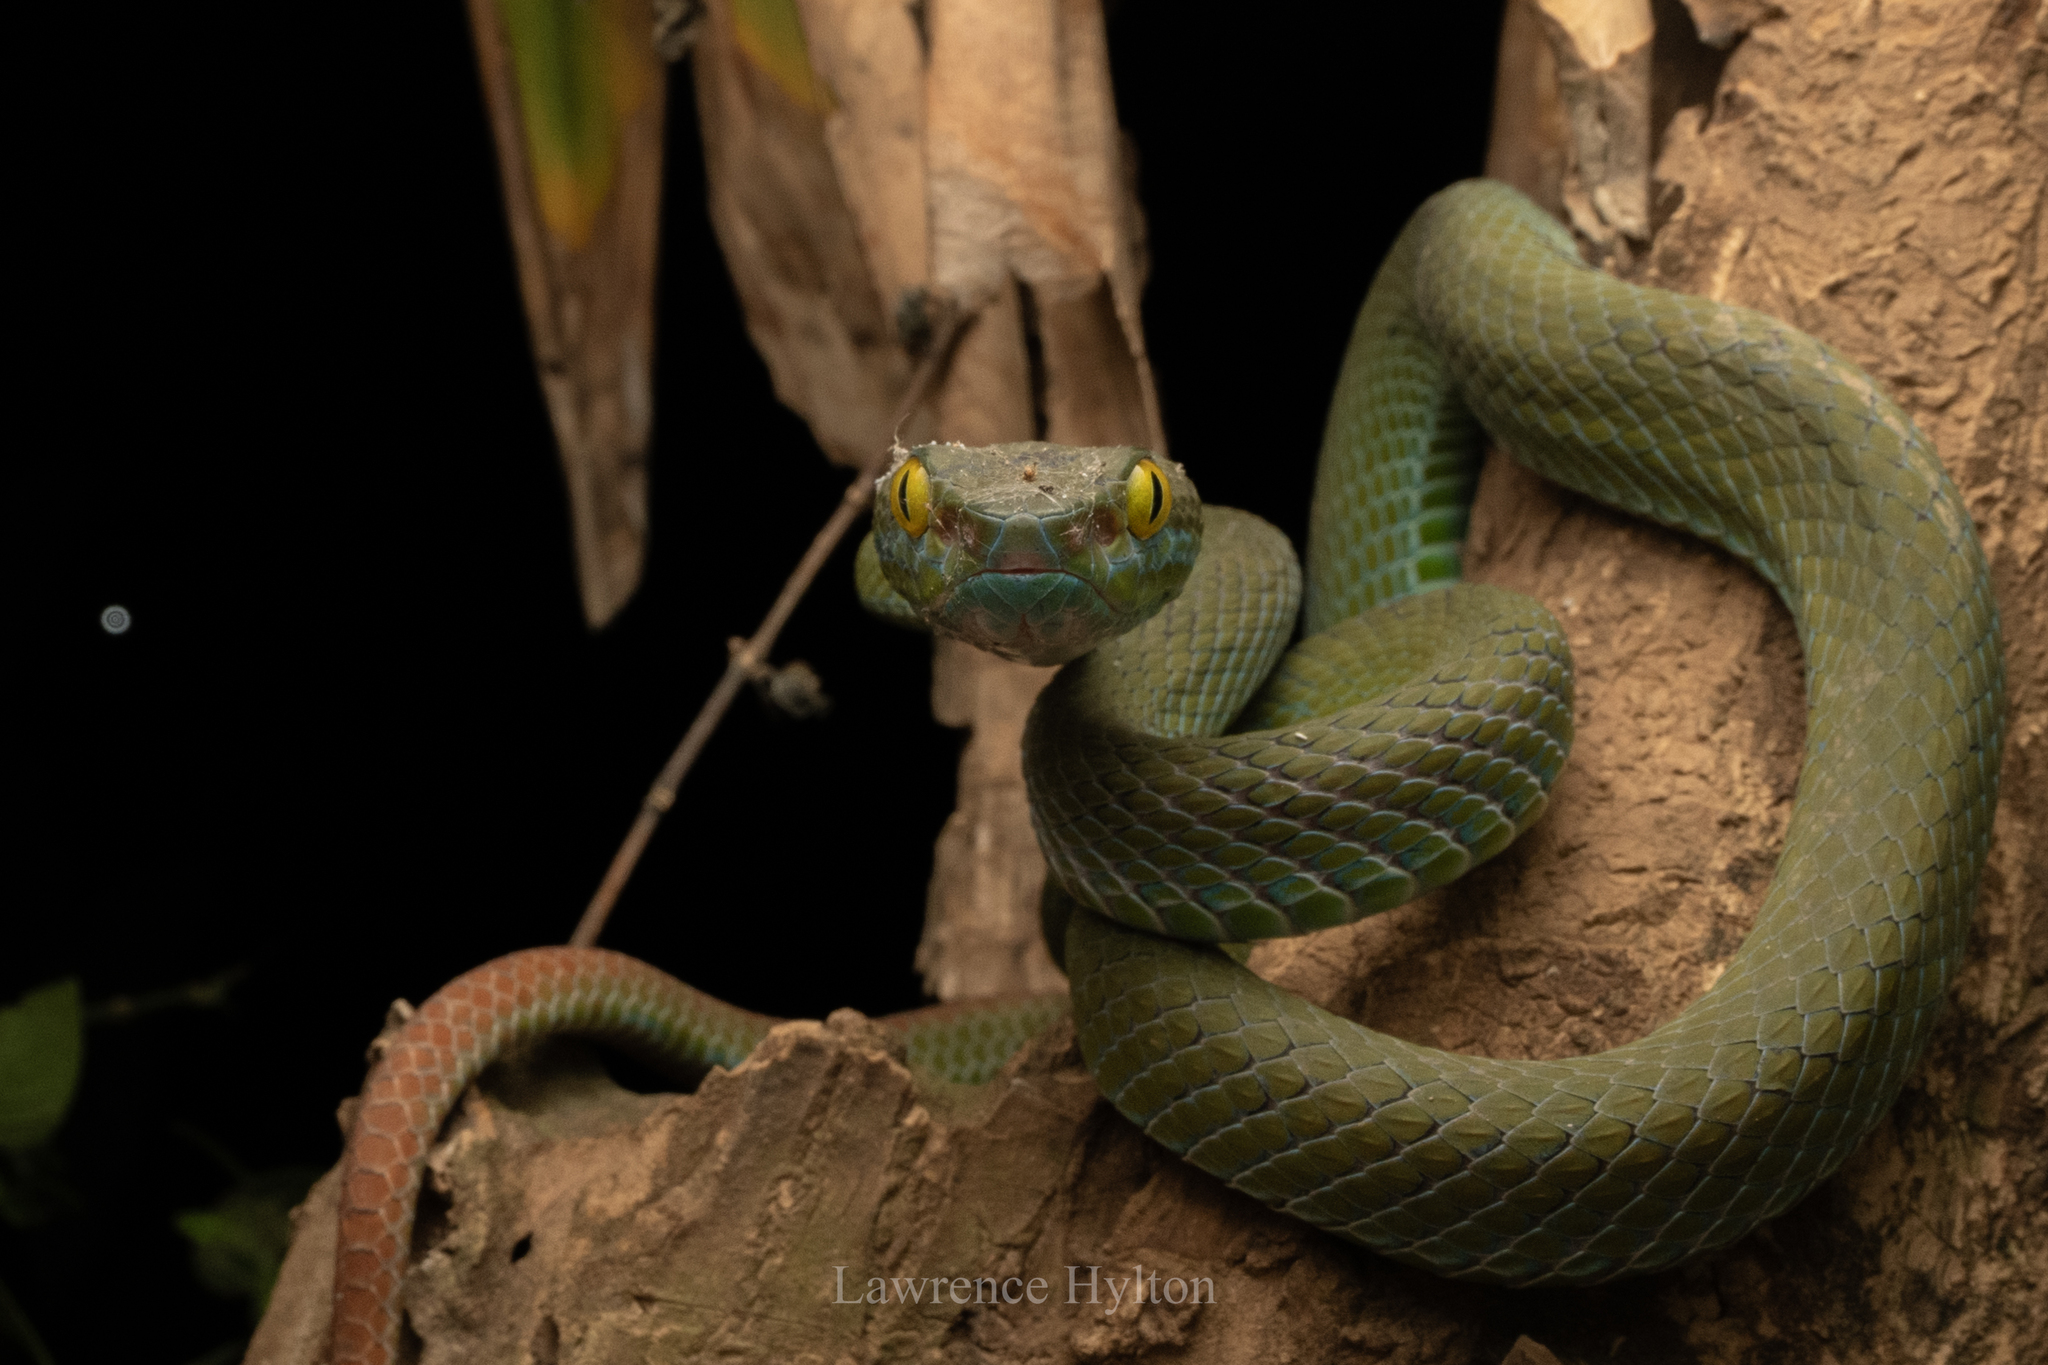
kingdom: Animalia
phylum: Chordata
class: Squamata
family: Viperidae
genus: Trimeresurus
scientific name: Trimeresurus macrops
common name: Kramer's pit viper
